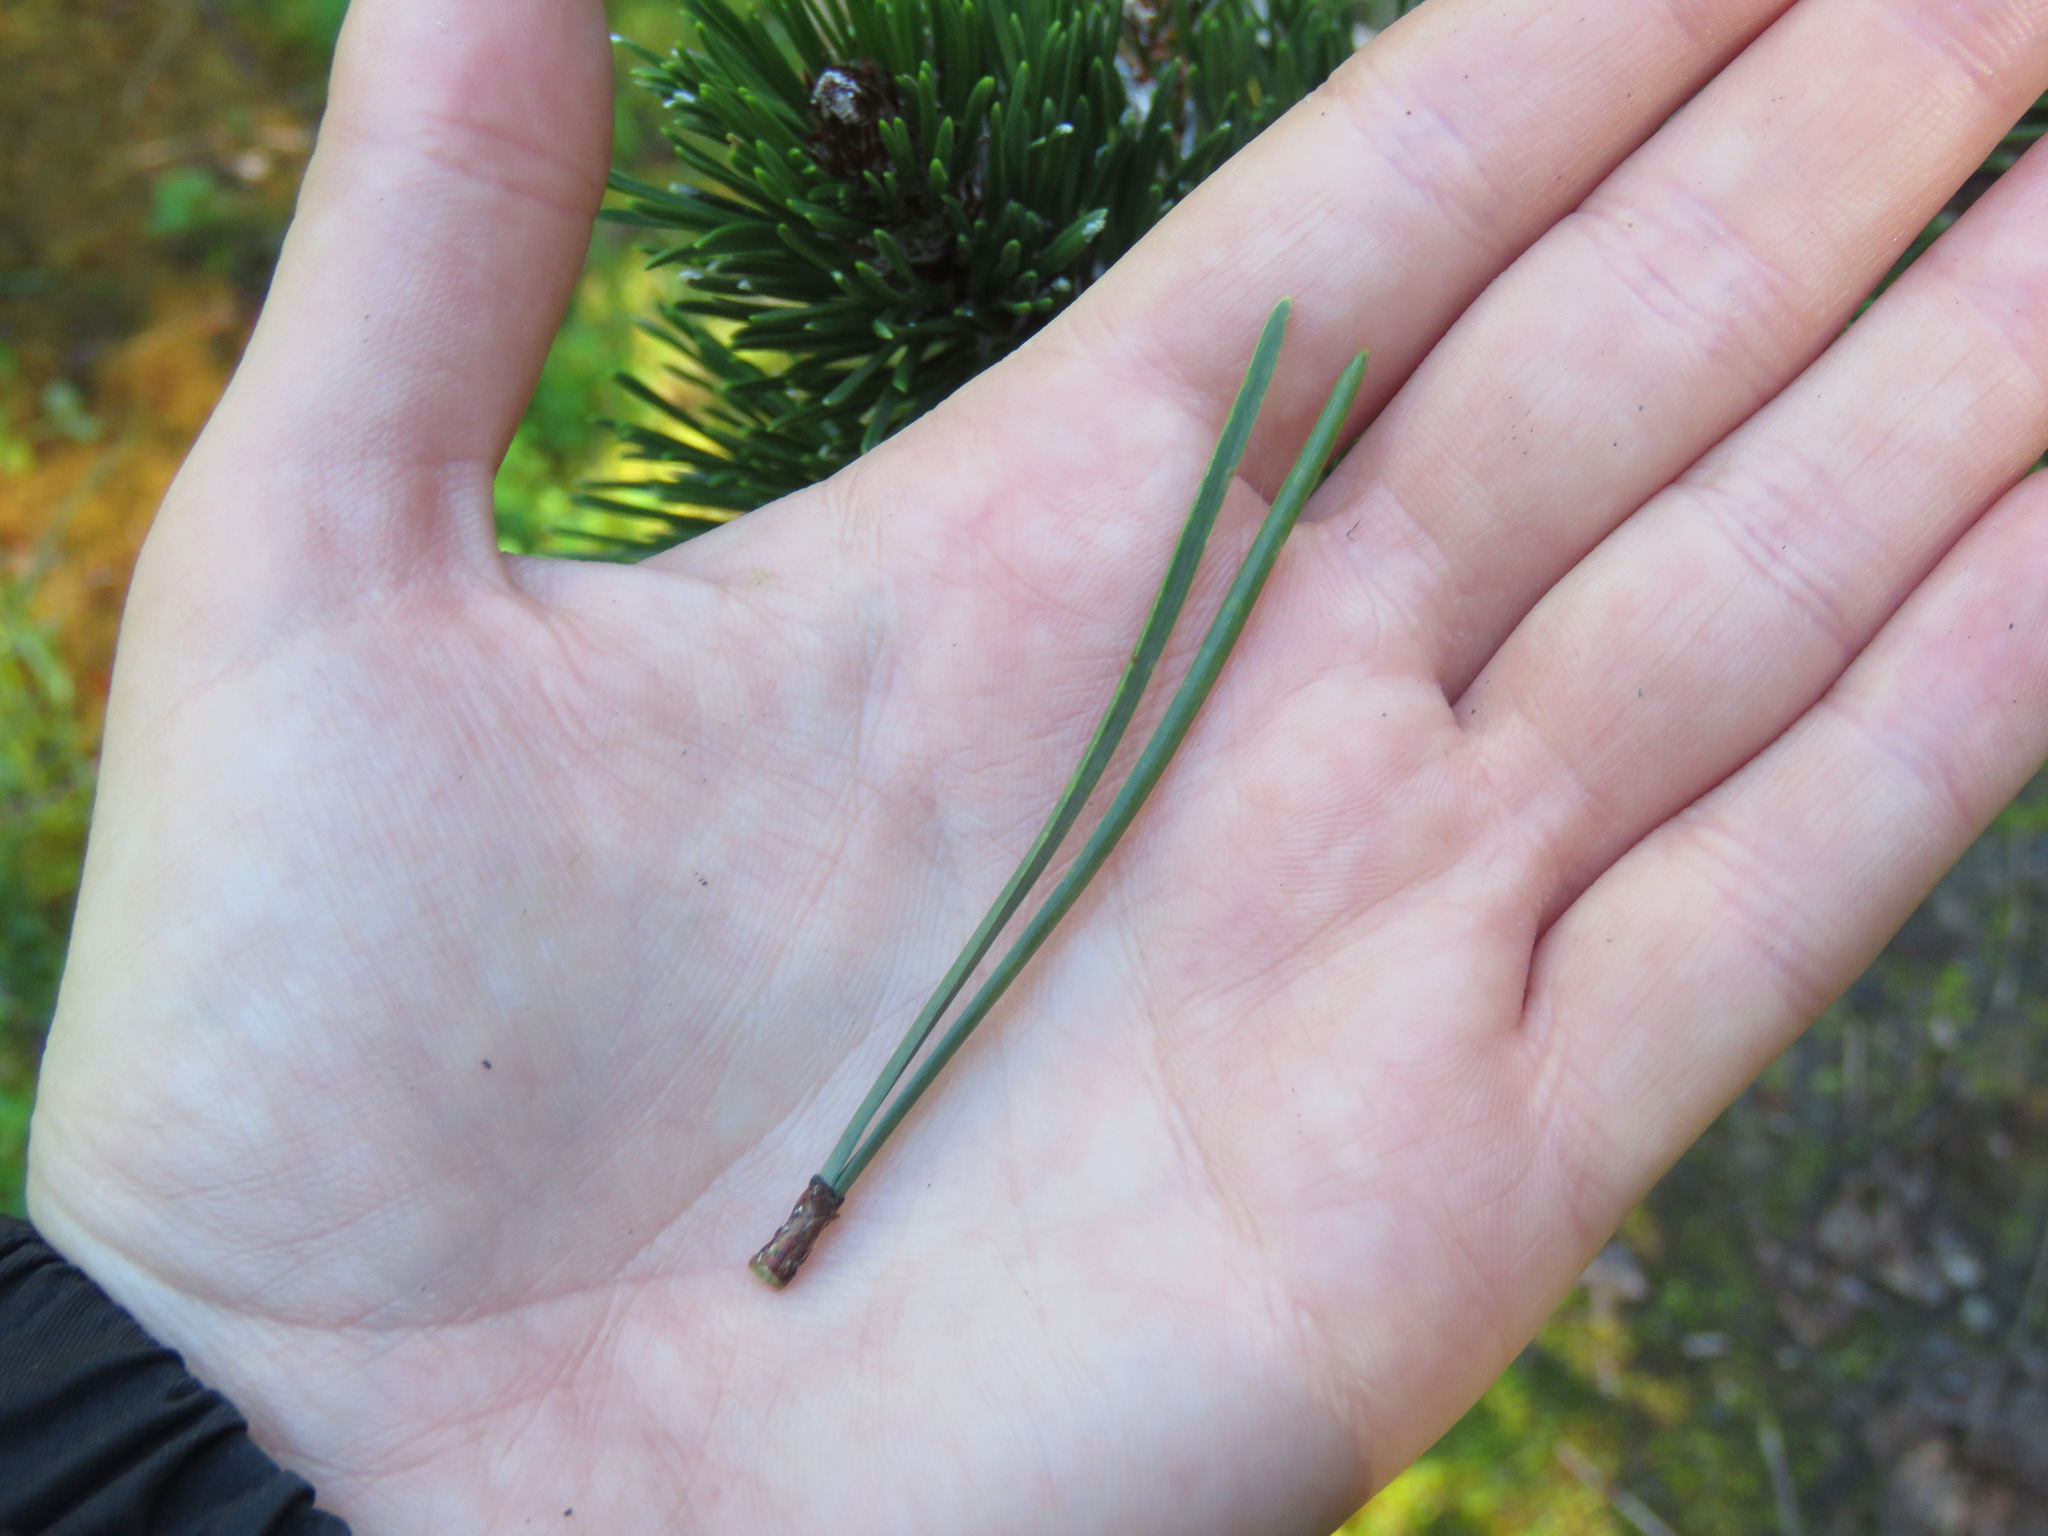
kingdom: Plantae
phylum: Tracheophyta
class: Pinopsida
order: Pinales
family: Pinaceae
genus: Pinus
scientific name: Pinus contorta
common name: Lodgepole pine
